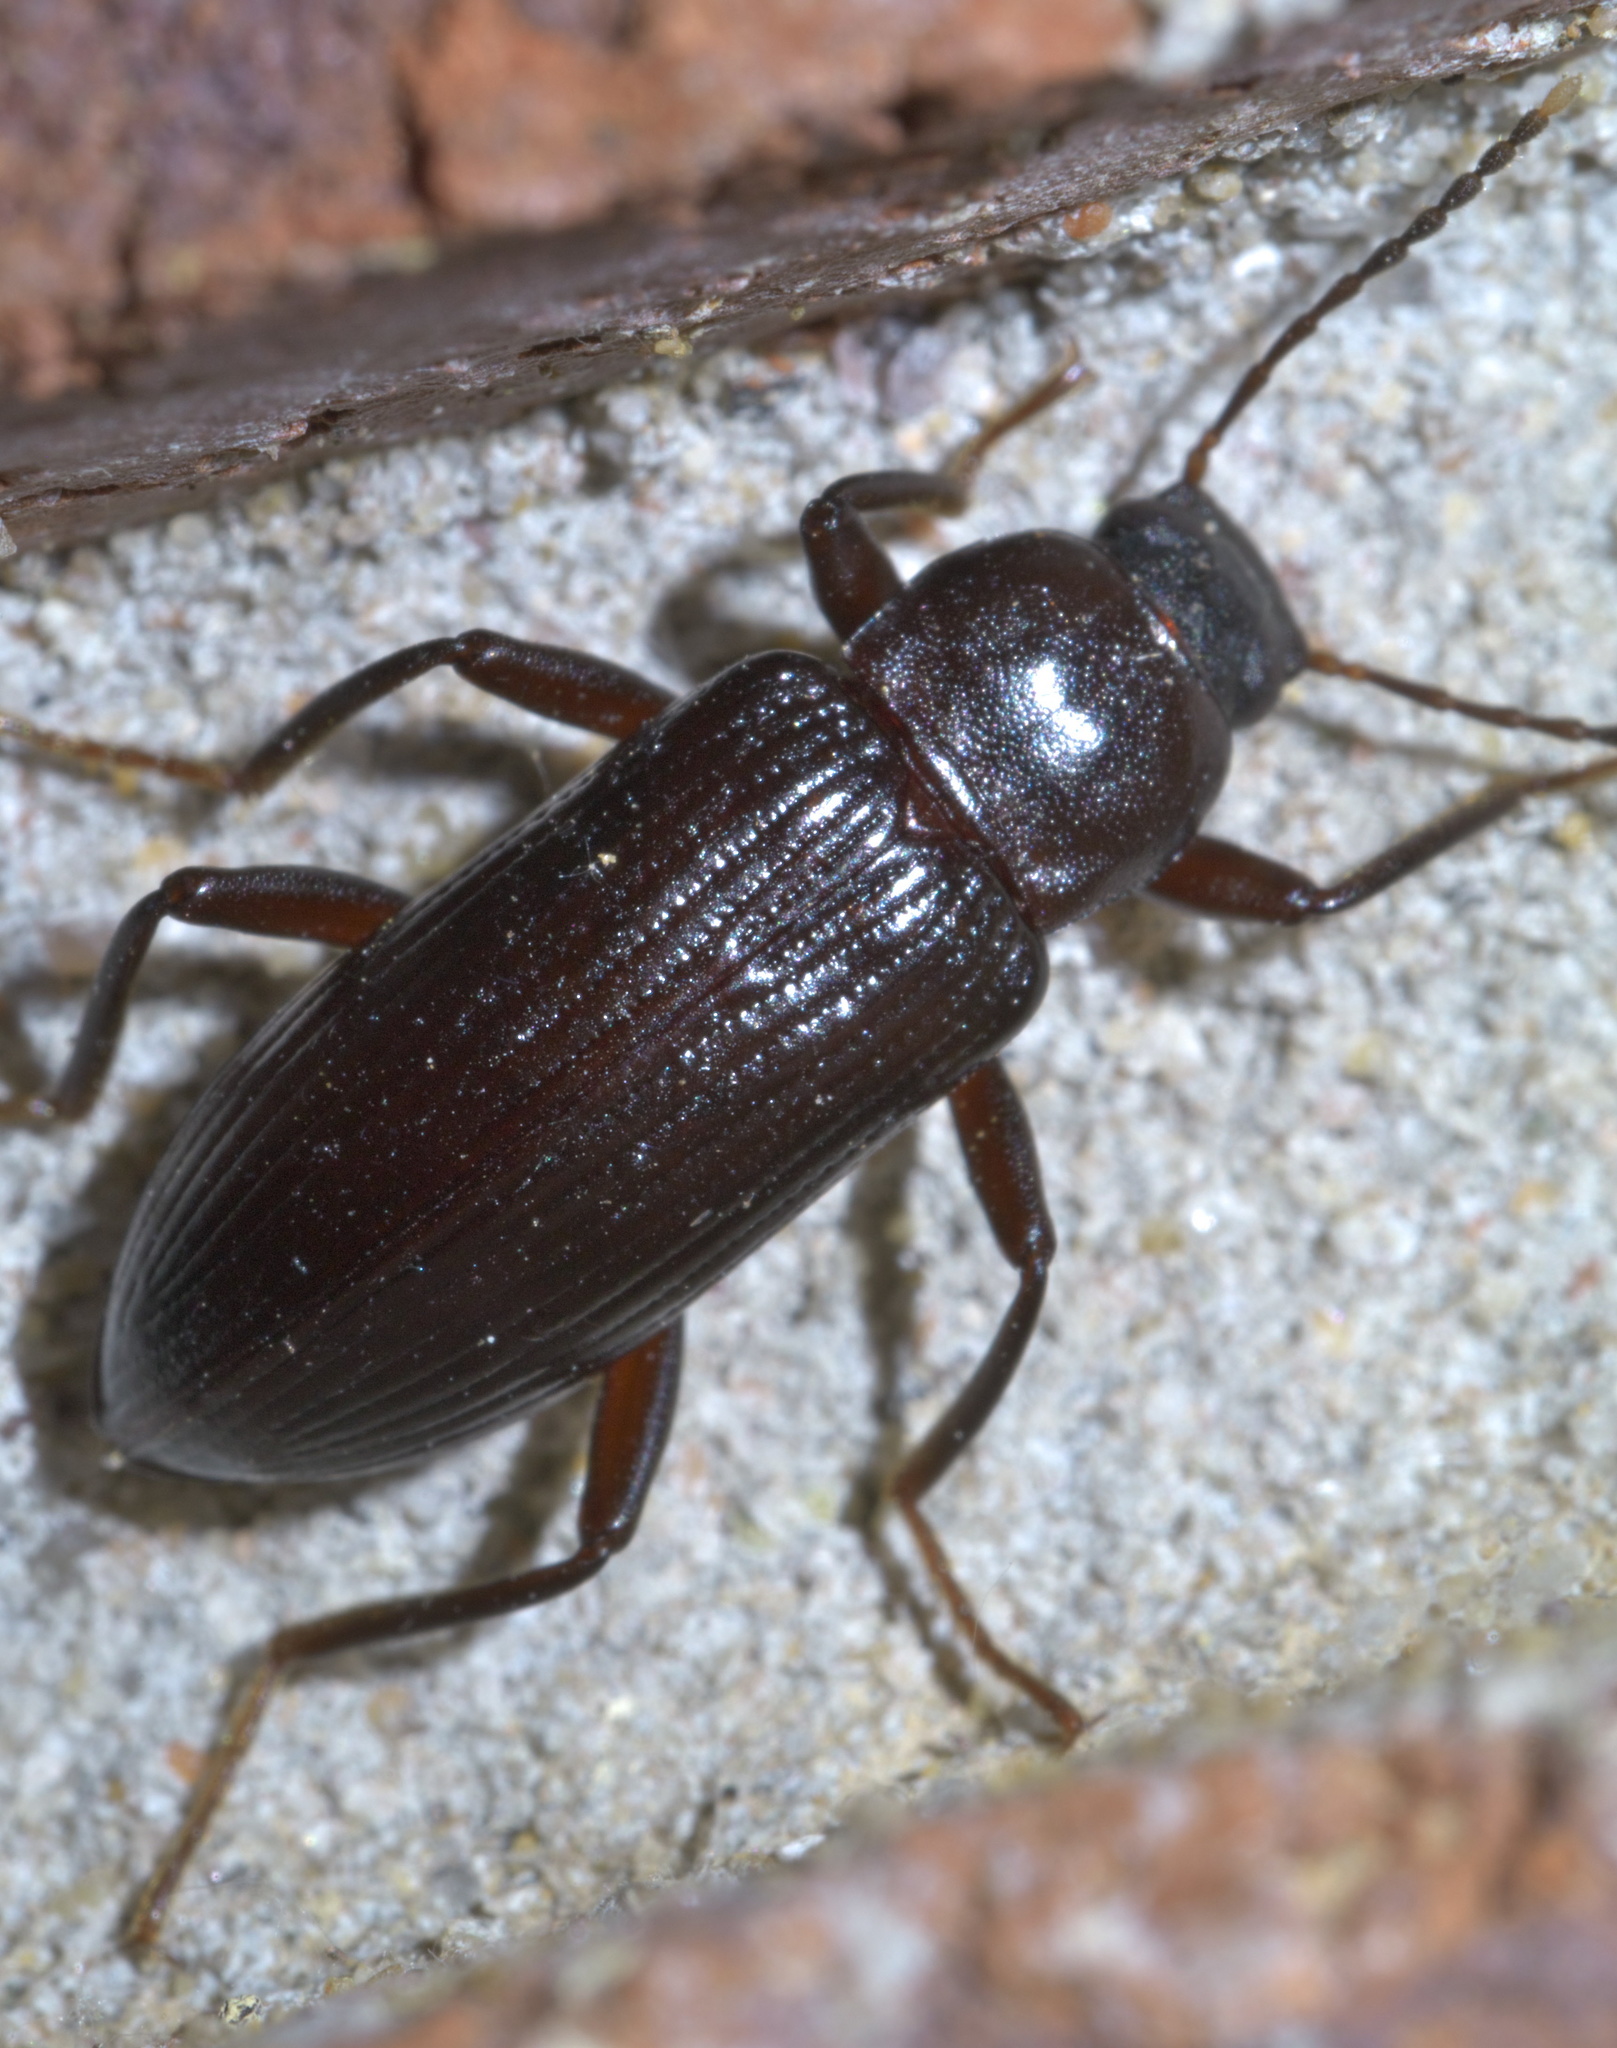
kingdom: Animalia
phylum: Arthropoda
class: Insecta
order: Coleoptera
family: Tenebrionidae
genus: Strongylium
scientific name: Strongylium terminatum
